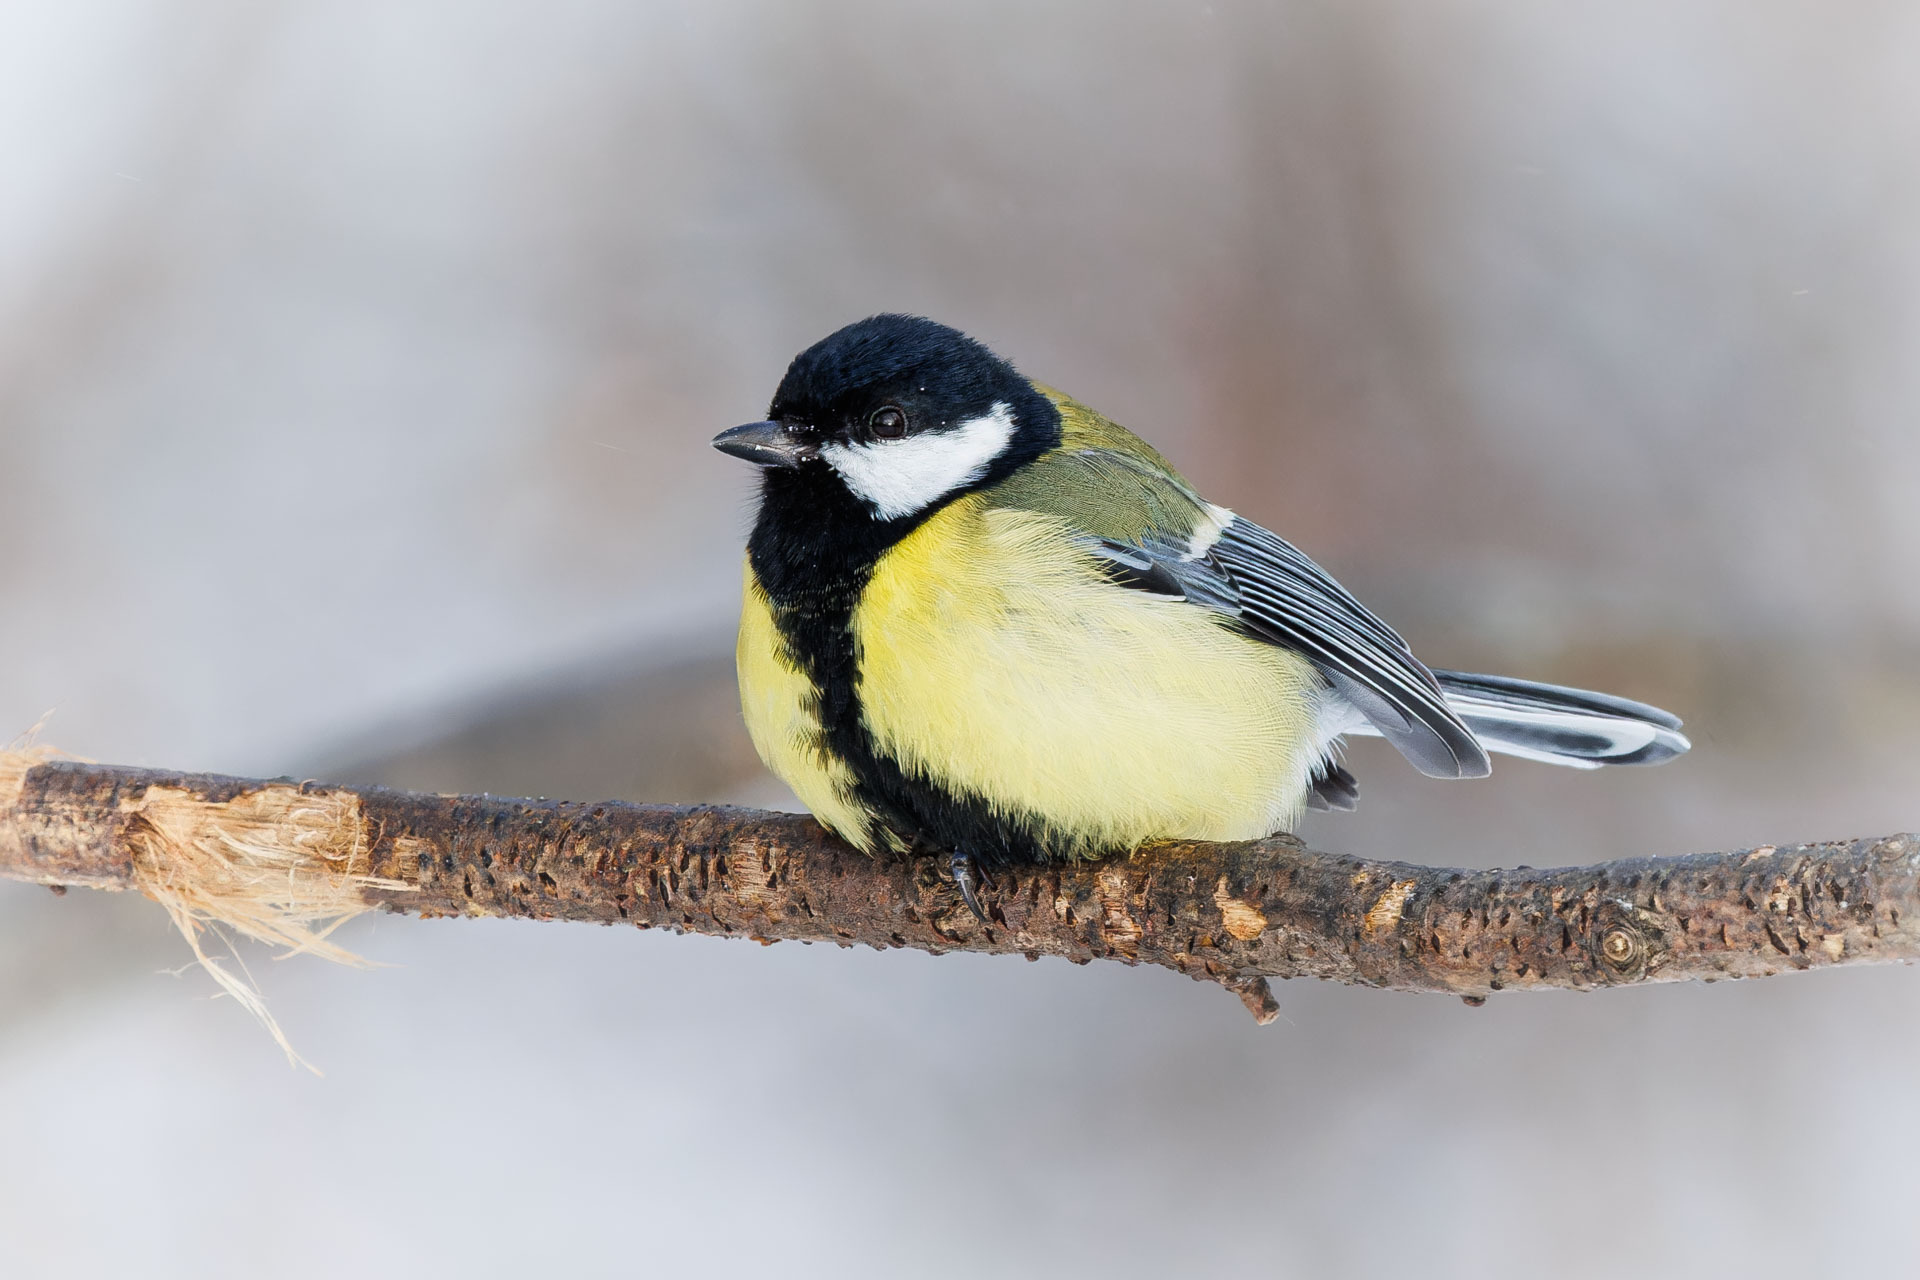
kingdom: Animalia
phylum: Chordata
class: Aves
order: Passeriformes
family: Paridae
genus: Parus
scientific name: Parus major
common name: Great tit
